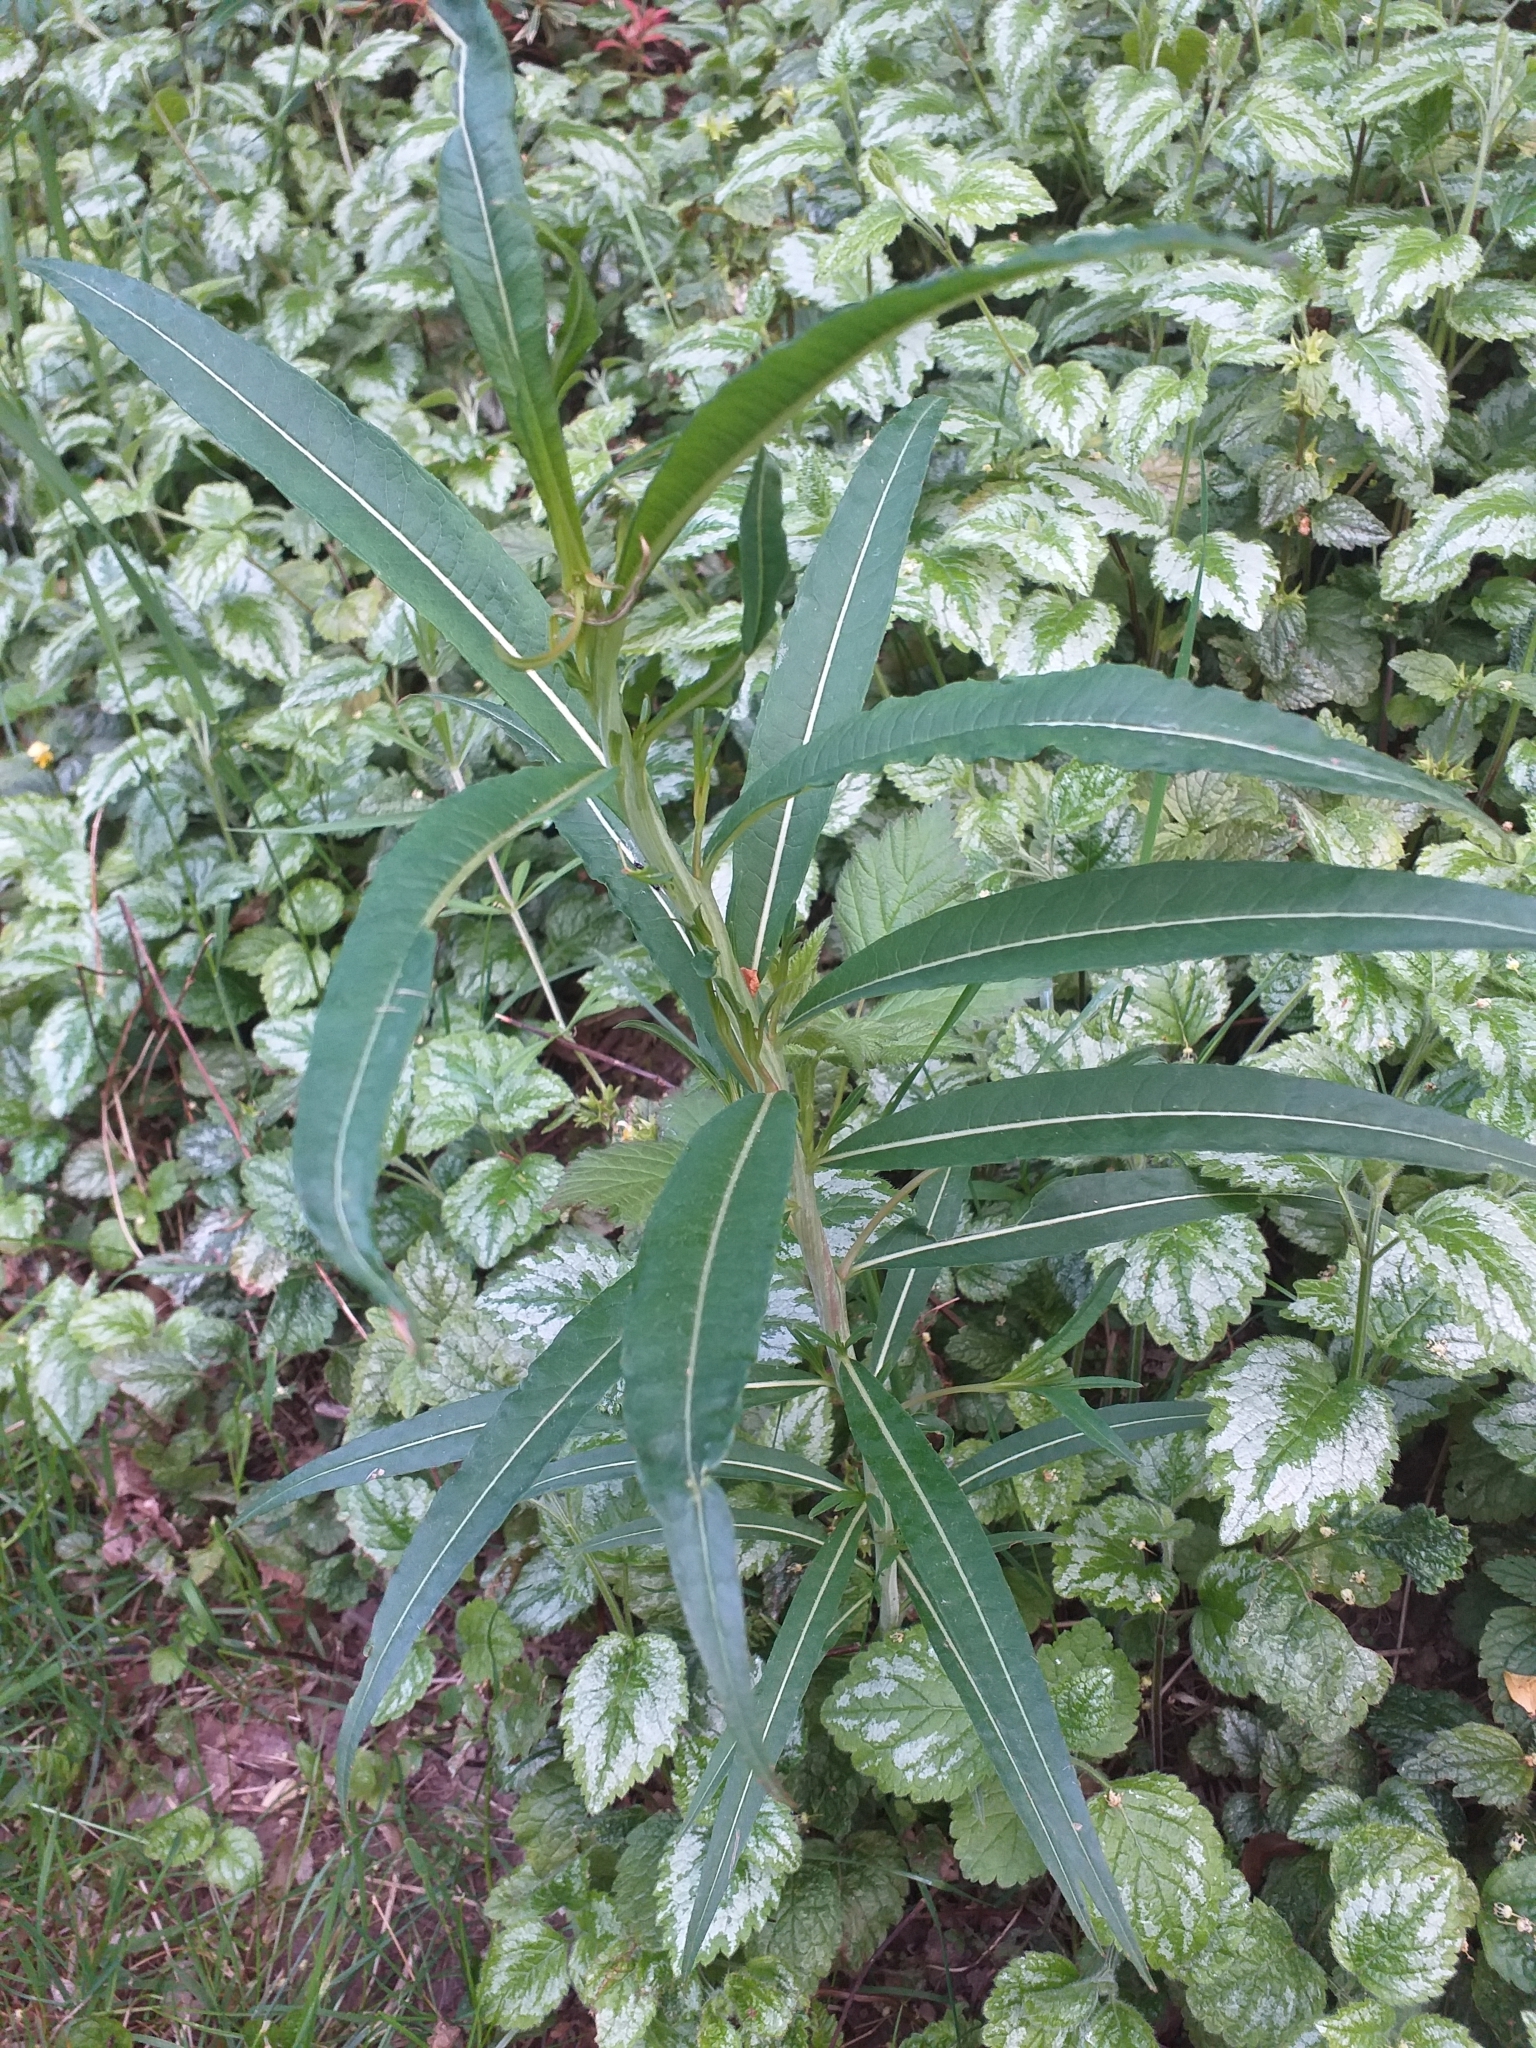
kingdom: Plantae
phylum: Tracheophyta
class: Magnoliopsida
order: Myrtales
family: Onagraceae
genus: Chamaenerion
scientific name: Chamaenerion angustifolium
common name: Fireweed
